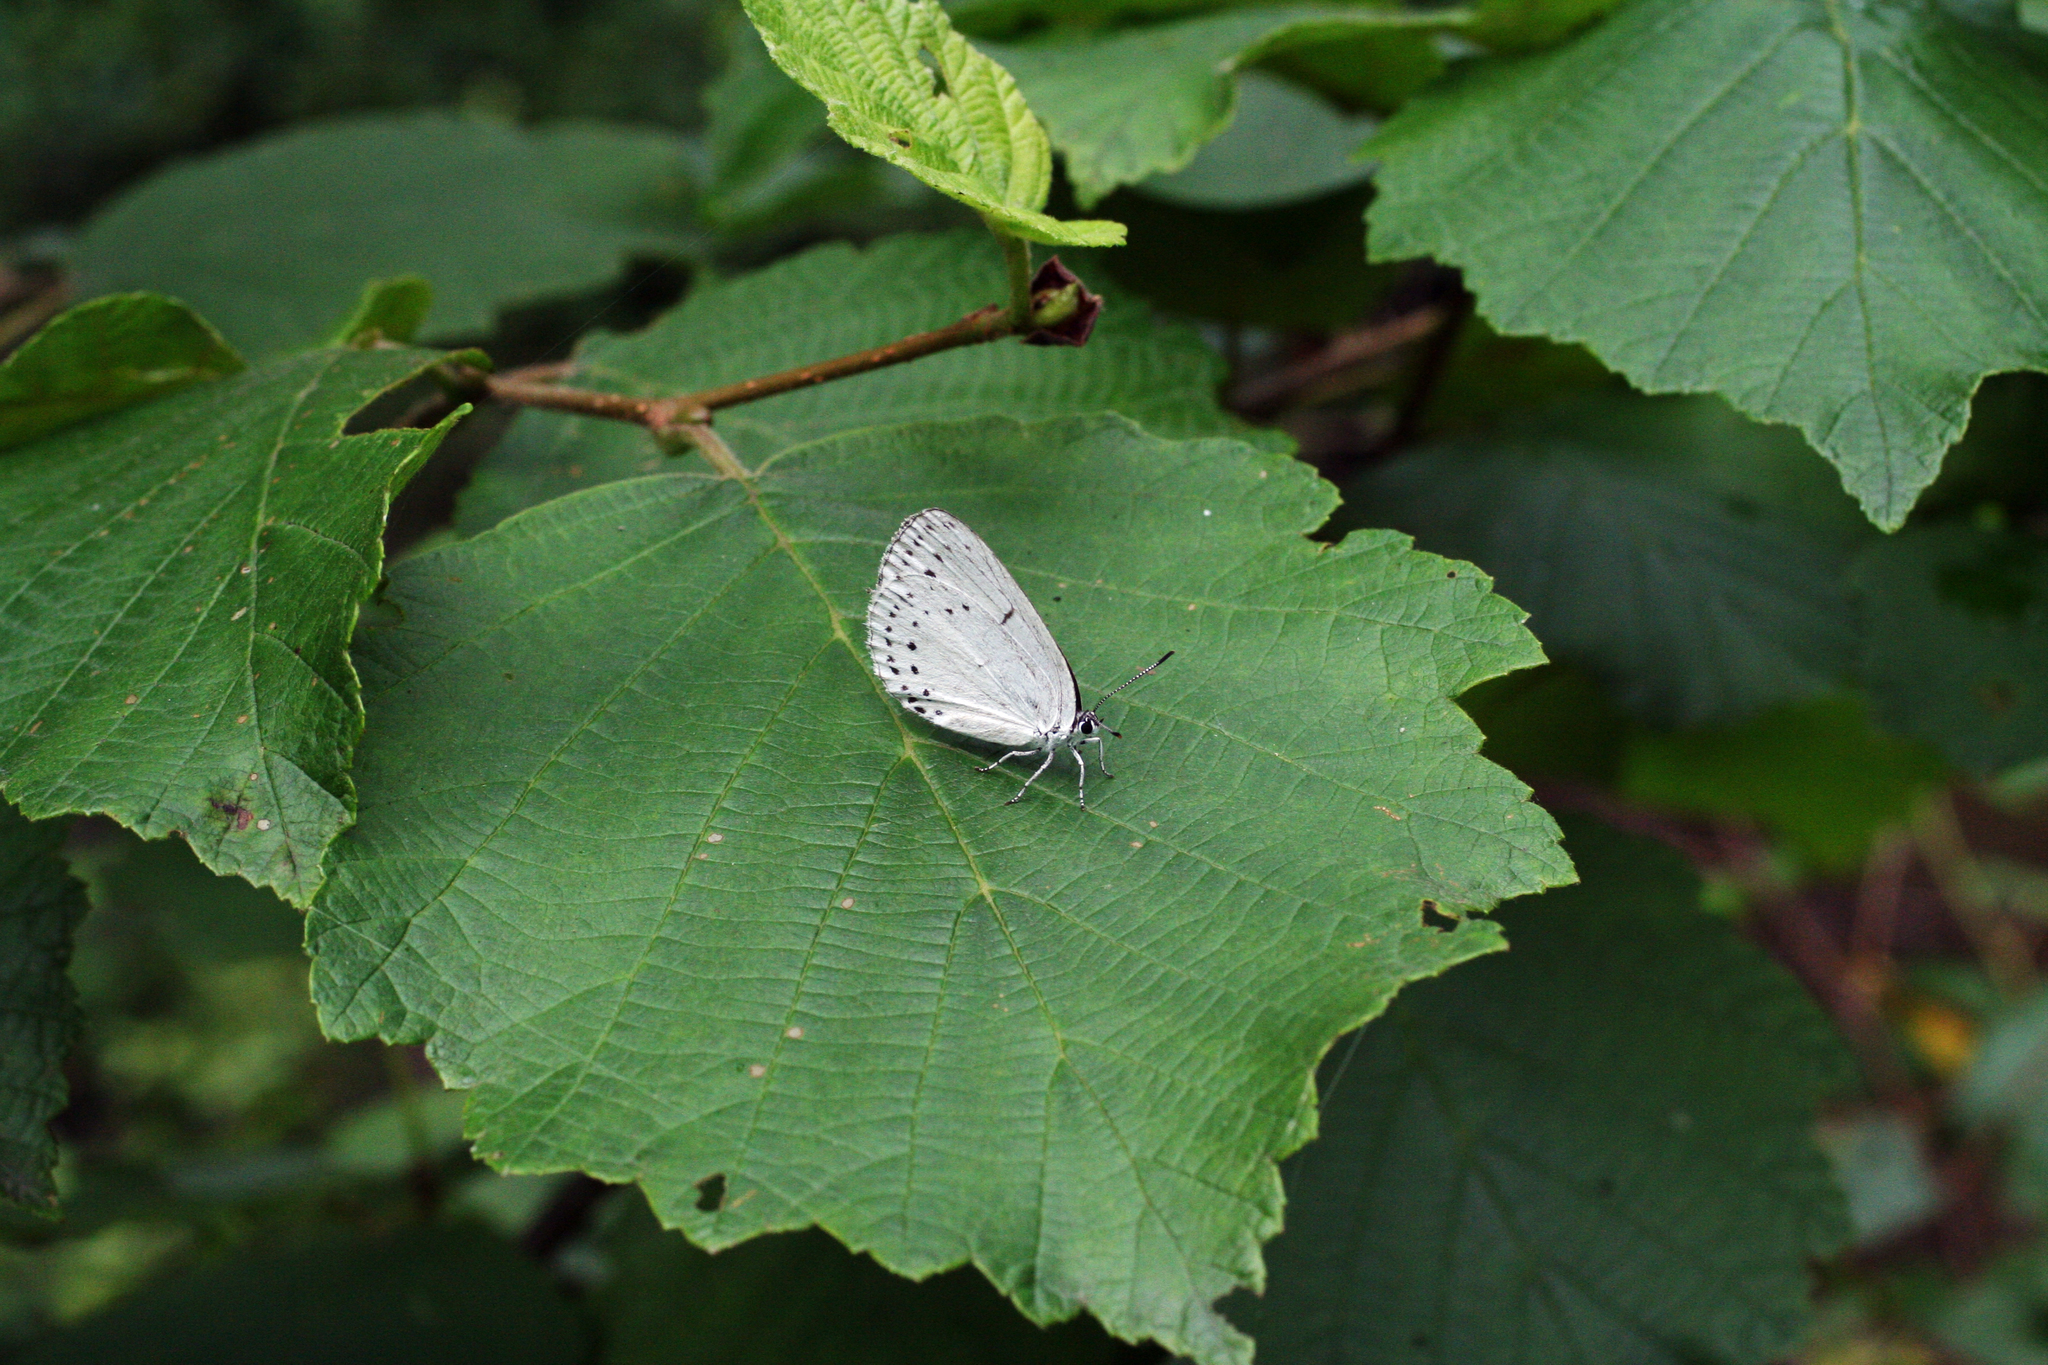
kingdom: Animalia
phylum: Arthropoda
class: Insecta
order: Lepidoptera
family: Lycaenidae
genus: Artopoetes
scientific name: Artopoetes pryeri
